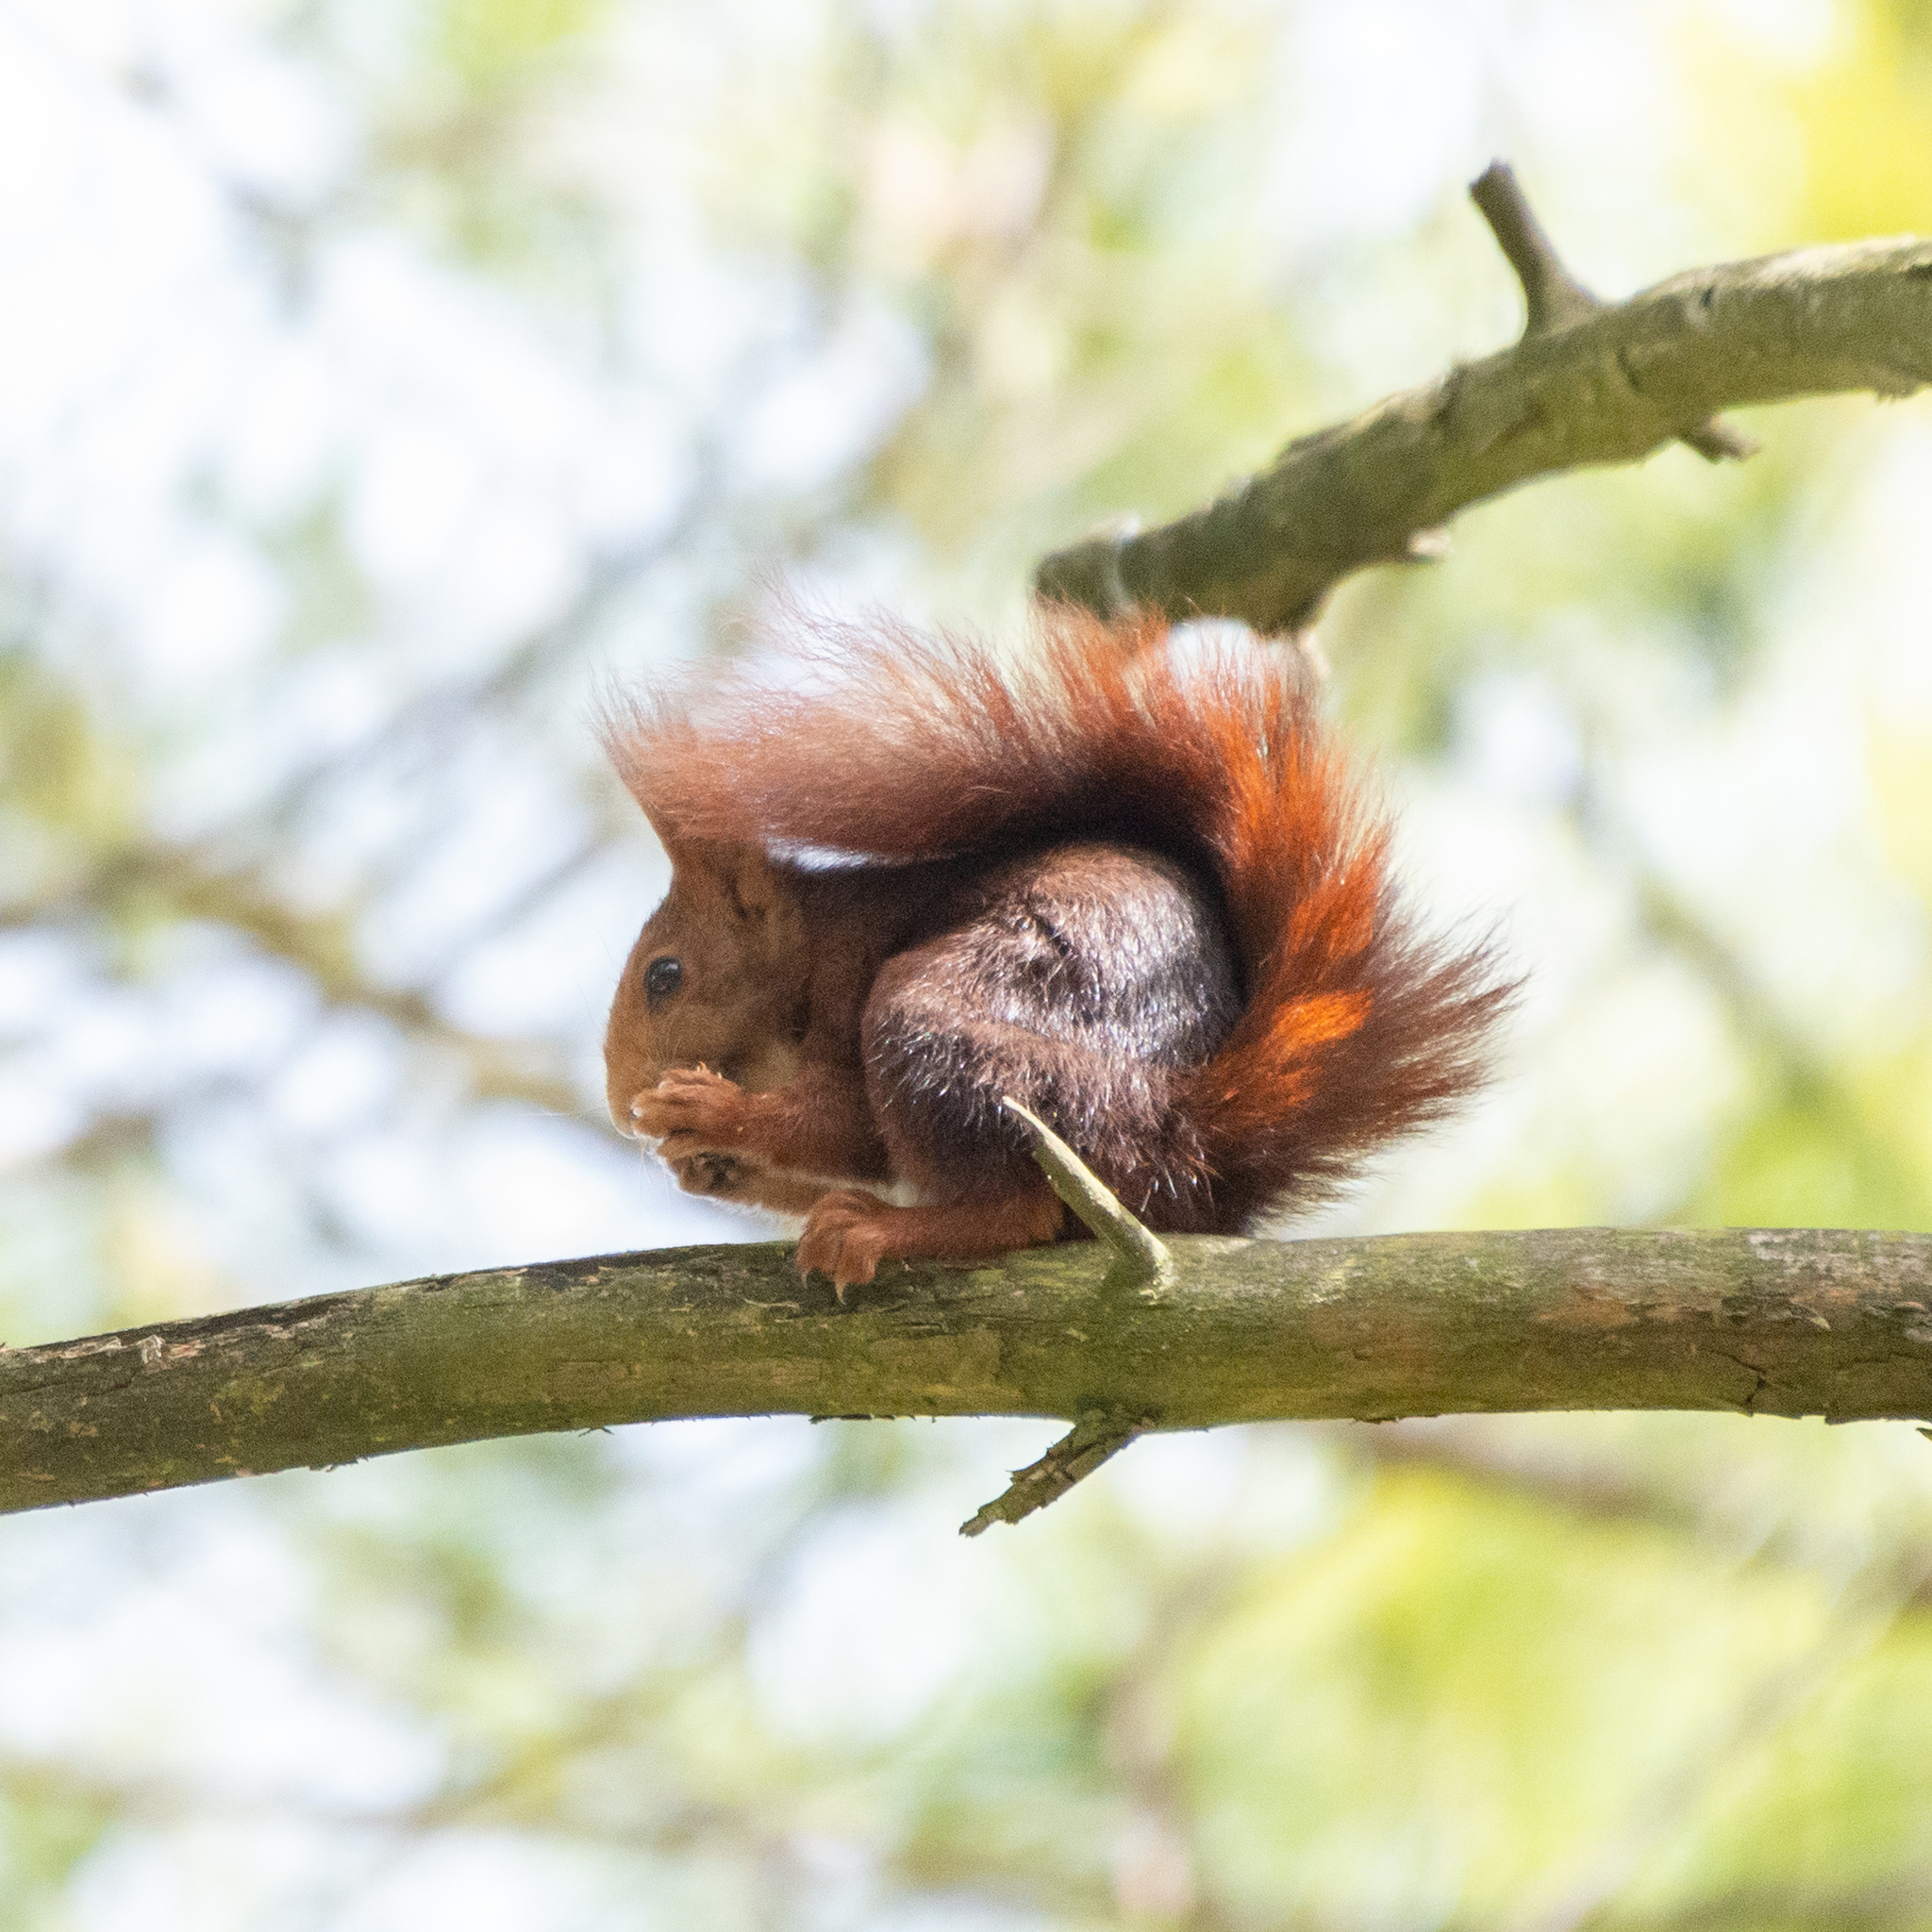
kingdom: Animalia
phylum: Chordata
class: Mammalia
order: Rodentia
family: Sciuridae
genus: Sciurus
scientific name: Sciurus vulgaris
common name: Eurasian red squirrel
